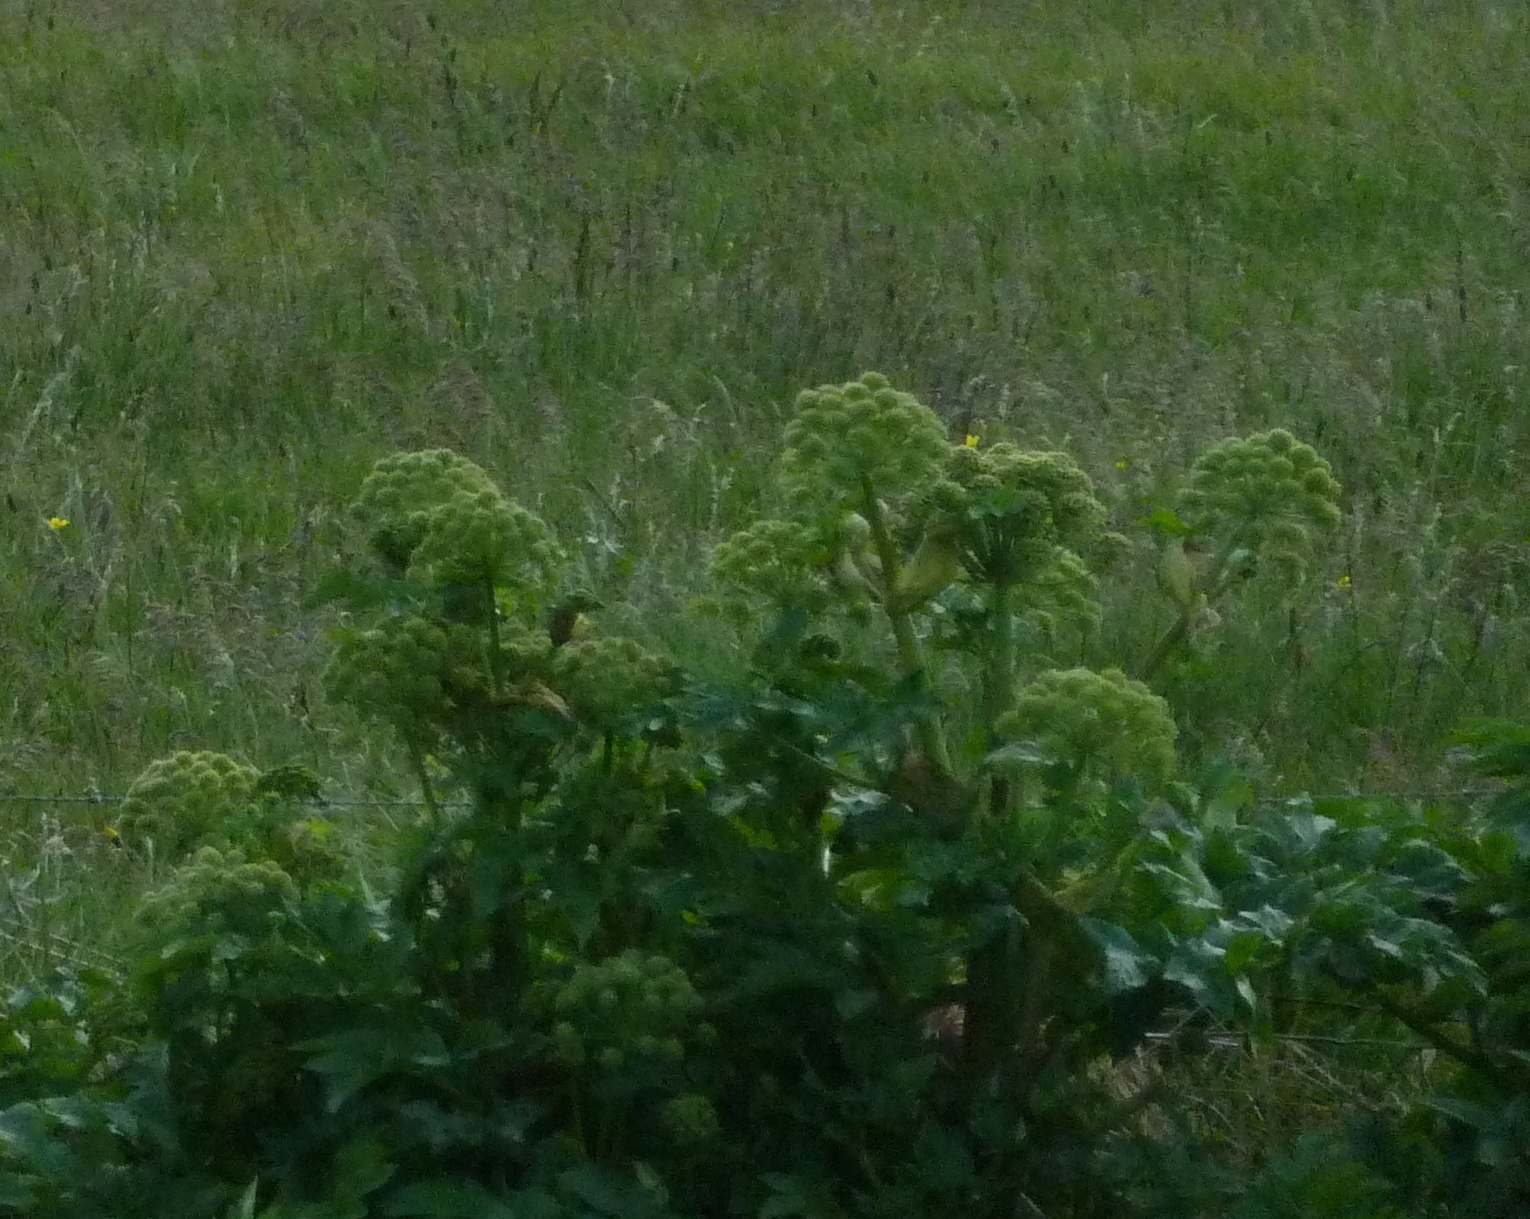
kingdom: Plantae
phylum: Tracheophyta
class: Magnoliopsida
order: Apiales
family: Apiaceae
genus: Angelica
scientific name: Angelica archangelica
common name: Garden angelica
